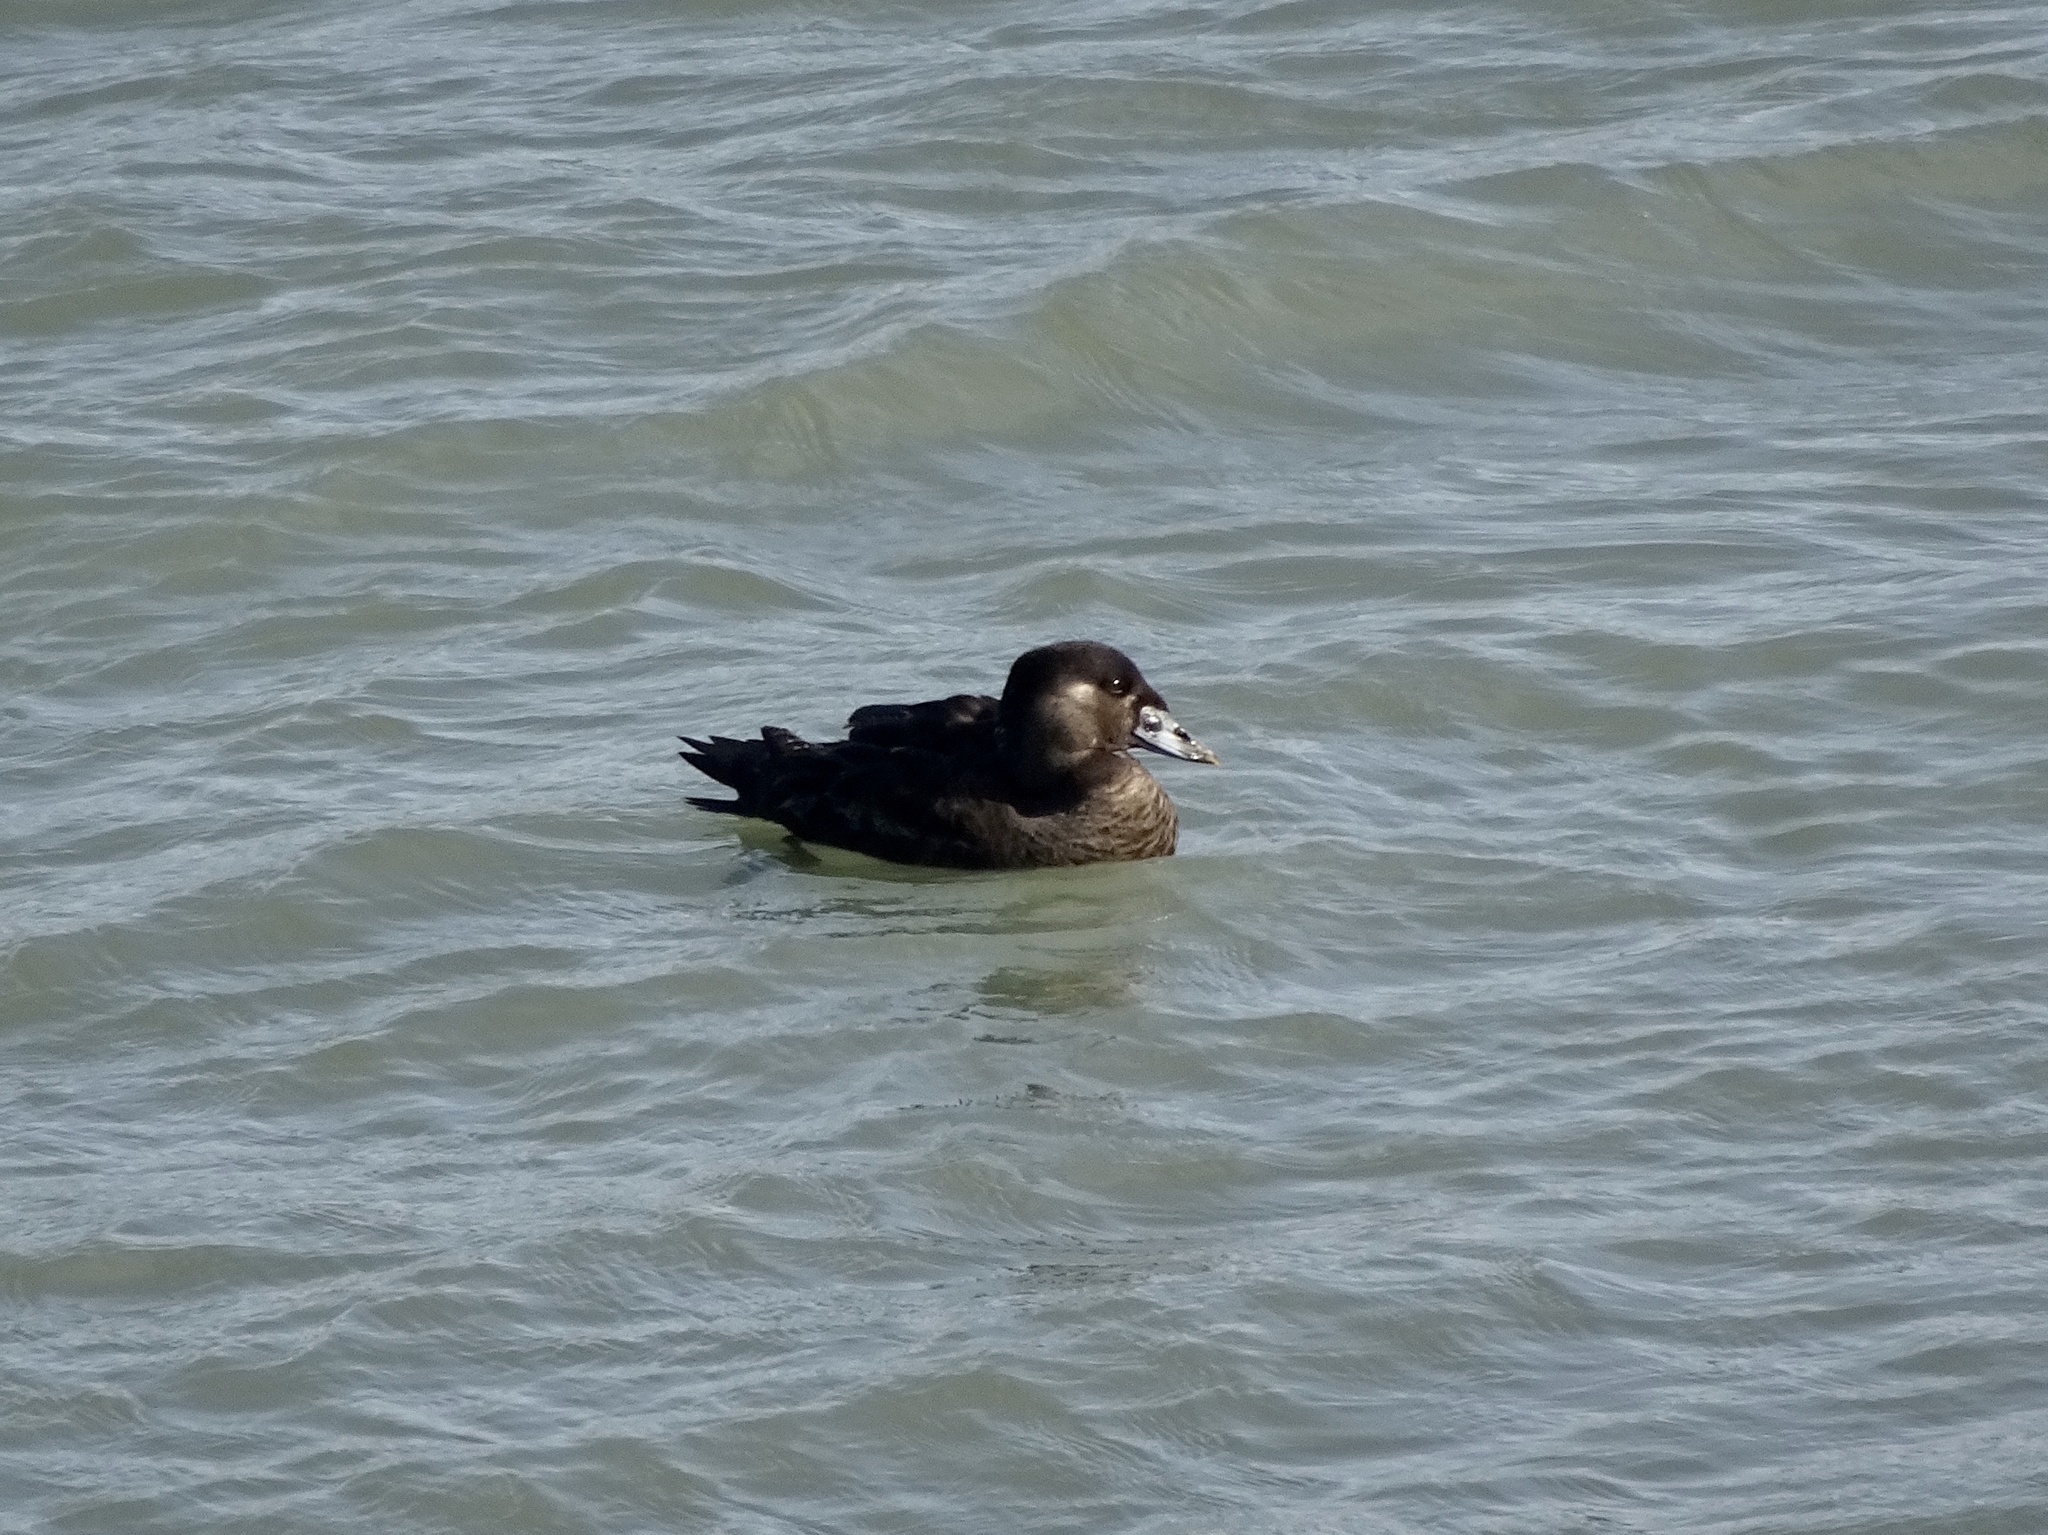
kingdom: Animalia
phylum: Chordata
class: Aves
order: Anseriformes
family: Anatidae
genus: Melanitta
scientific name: Melanitta perspicillata
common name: Surf scoter
